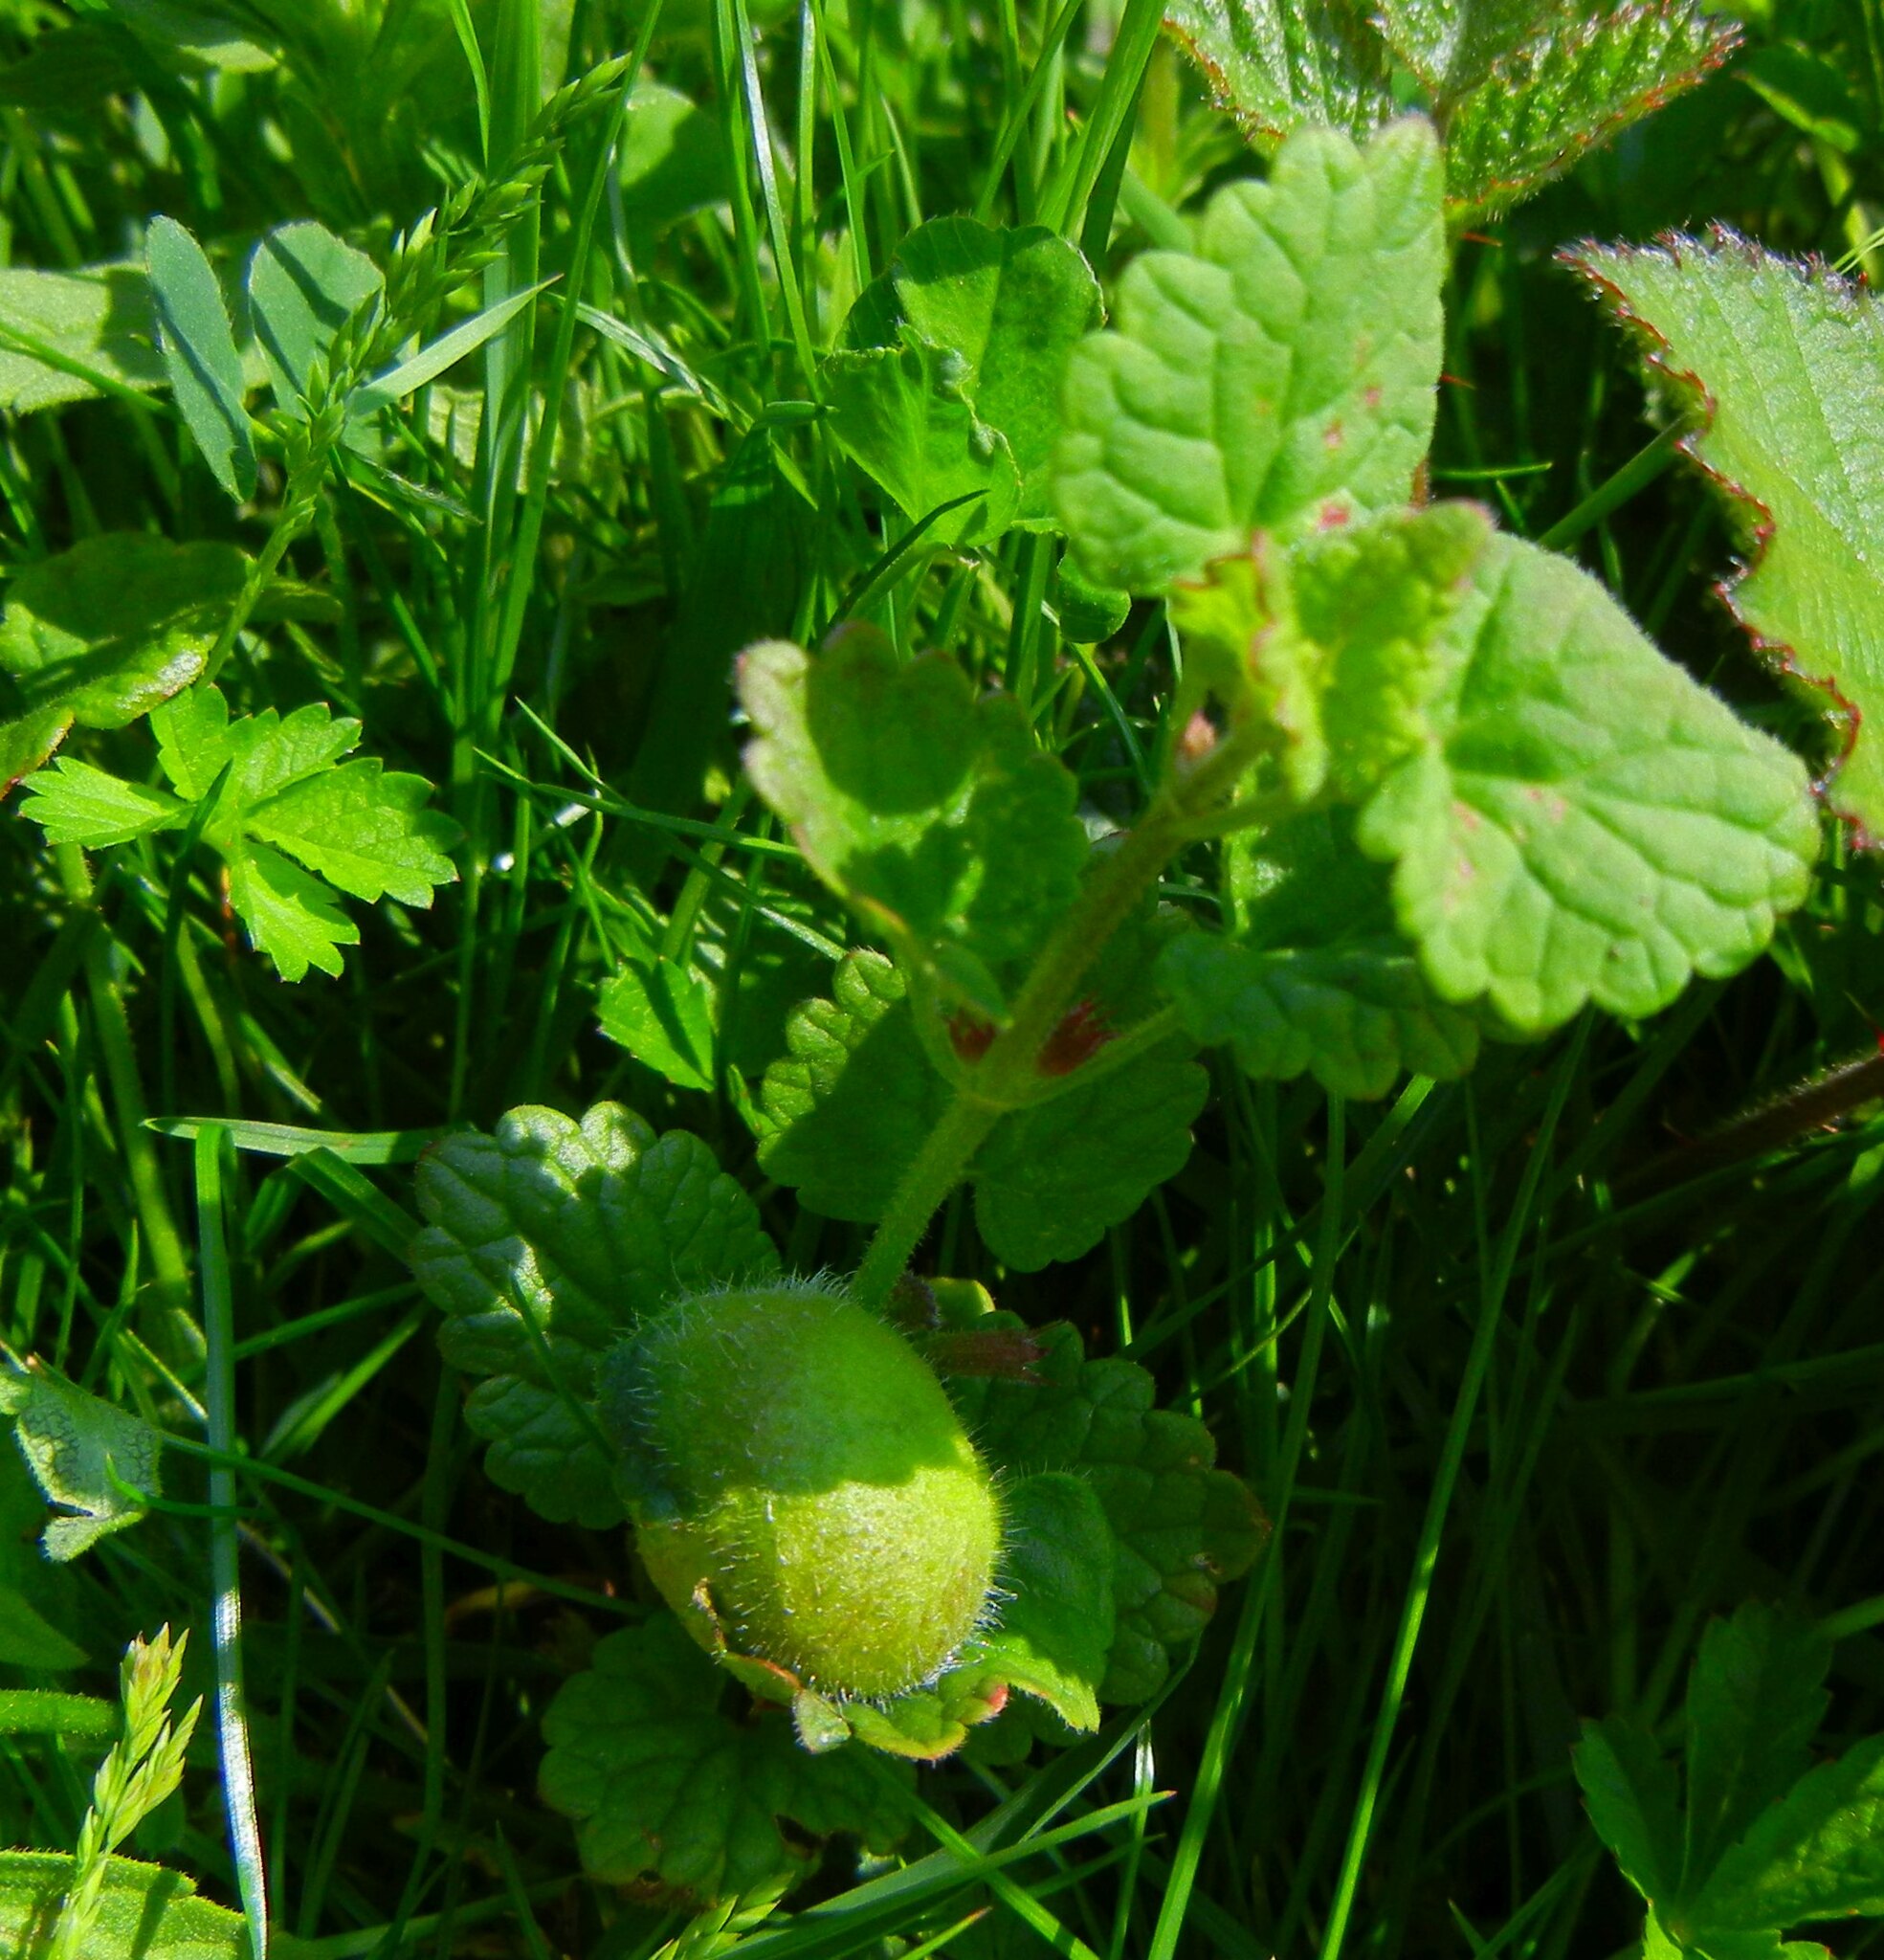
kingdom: Animalia
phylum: Arthropoda
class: Insecta
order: Hymenoptera
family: Cynipidae
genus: Liposthenes
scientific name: Liposthenes glechomae
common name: Gall wasp
